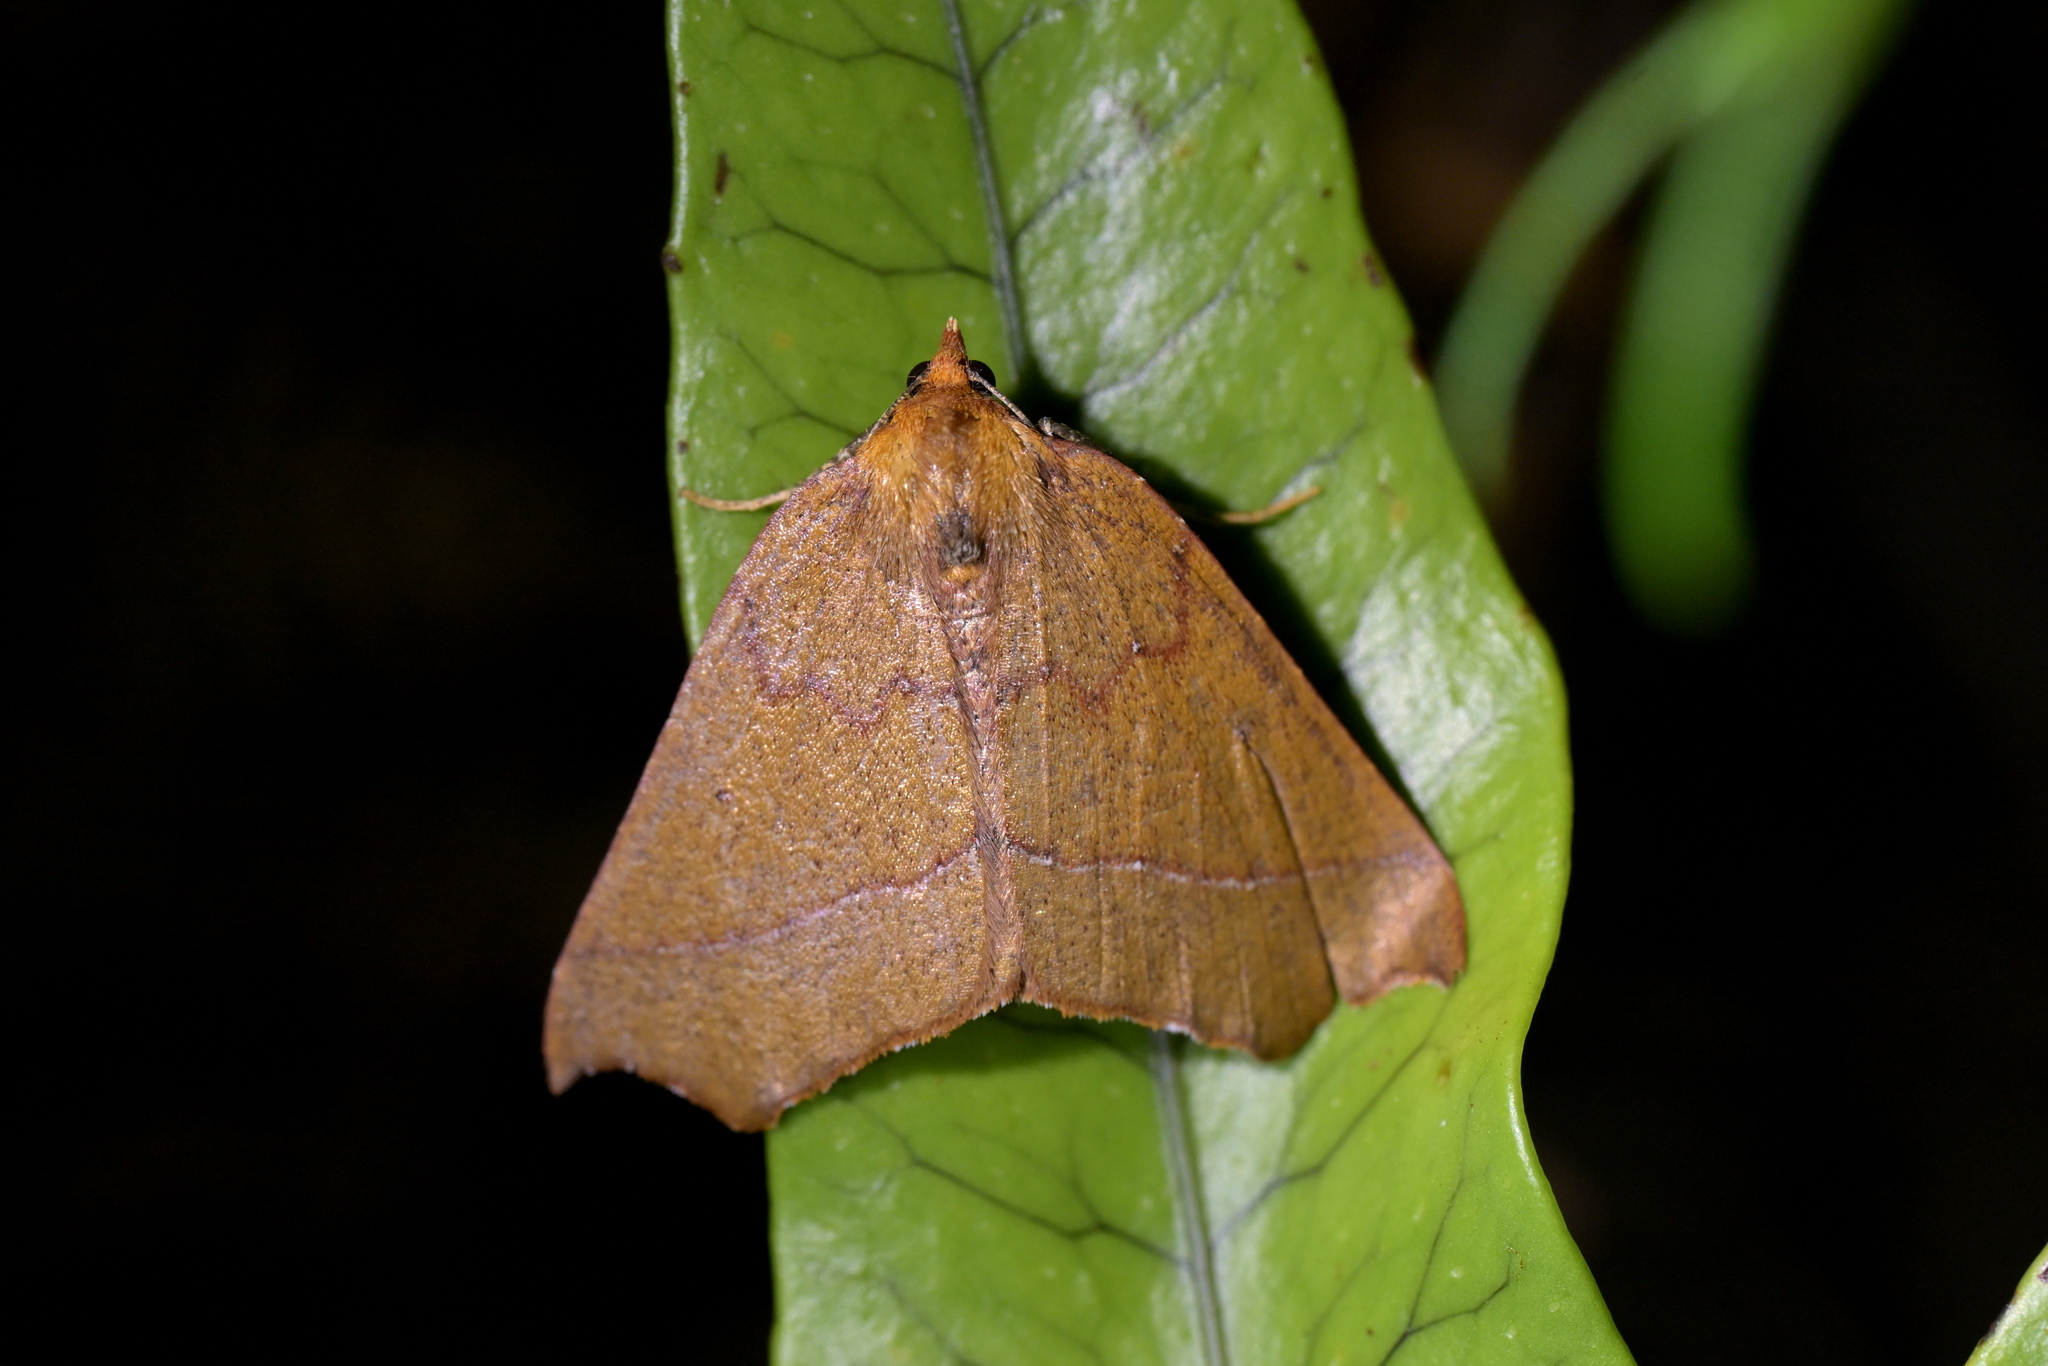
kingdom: Animalia
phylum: Arthropoda
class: Insecta
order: Lepidoptera
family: Geometridae
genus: Ischalis
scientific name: Ischalis nelsonaria
